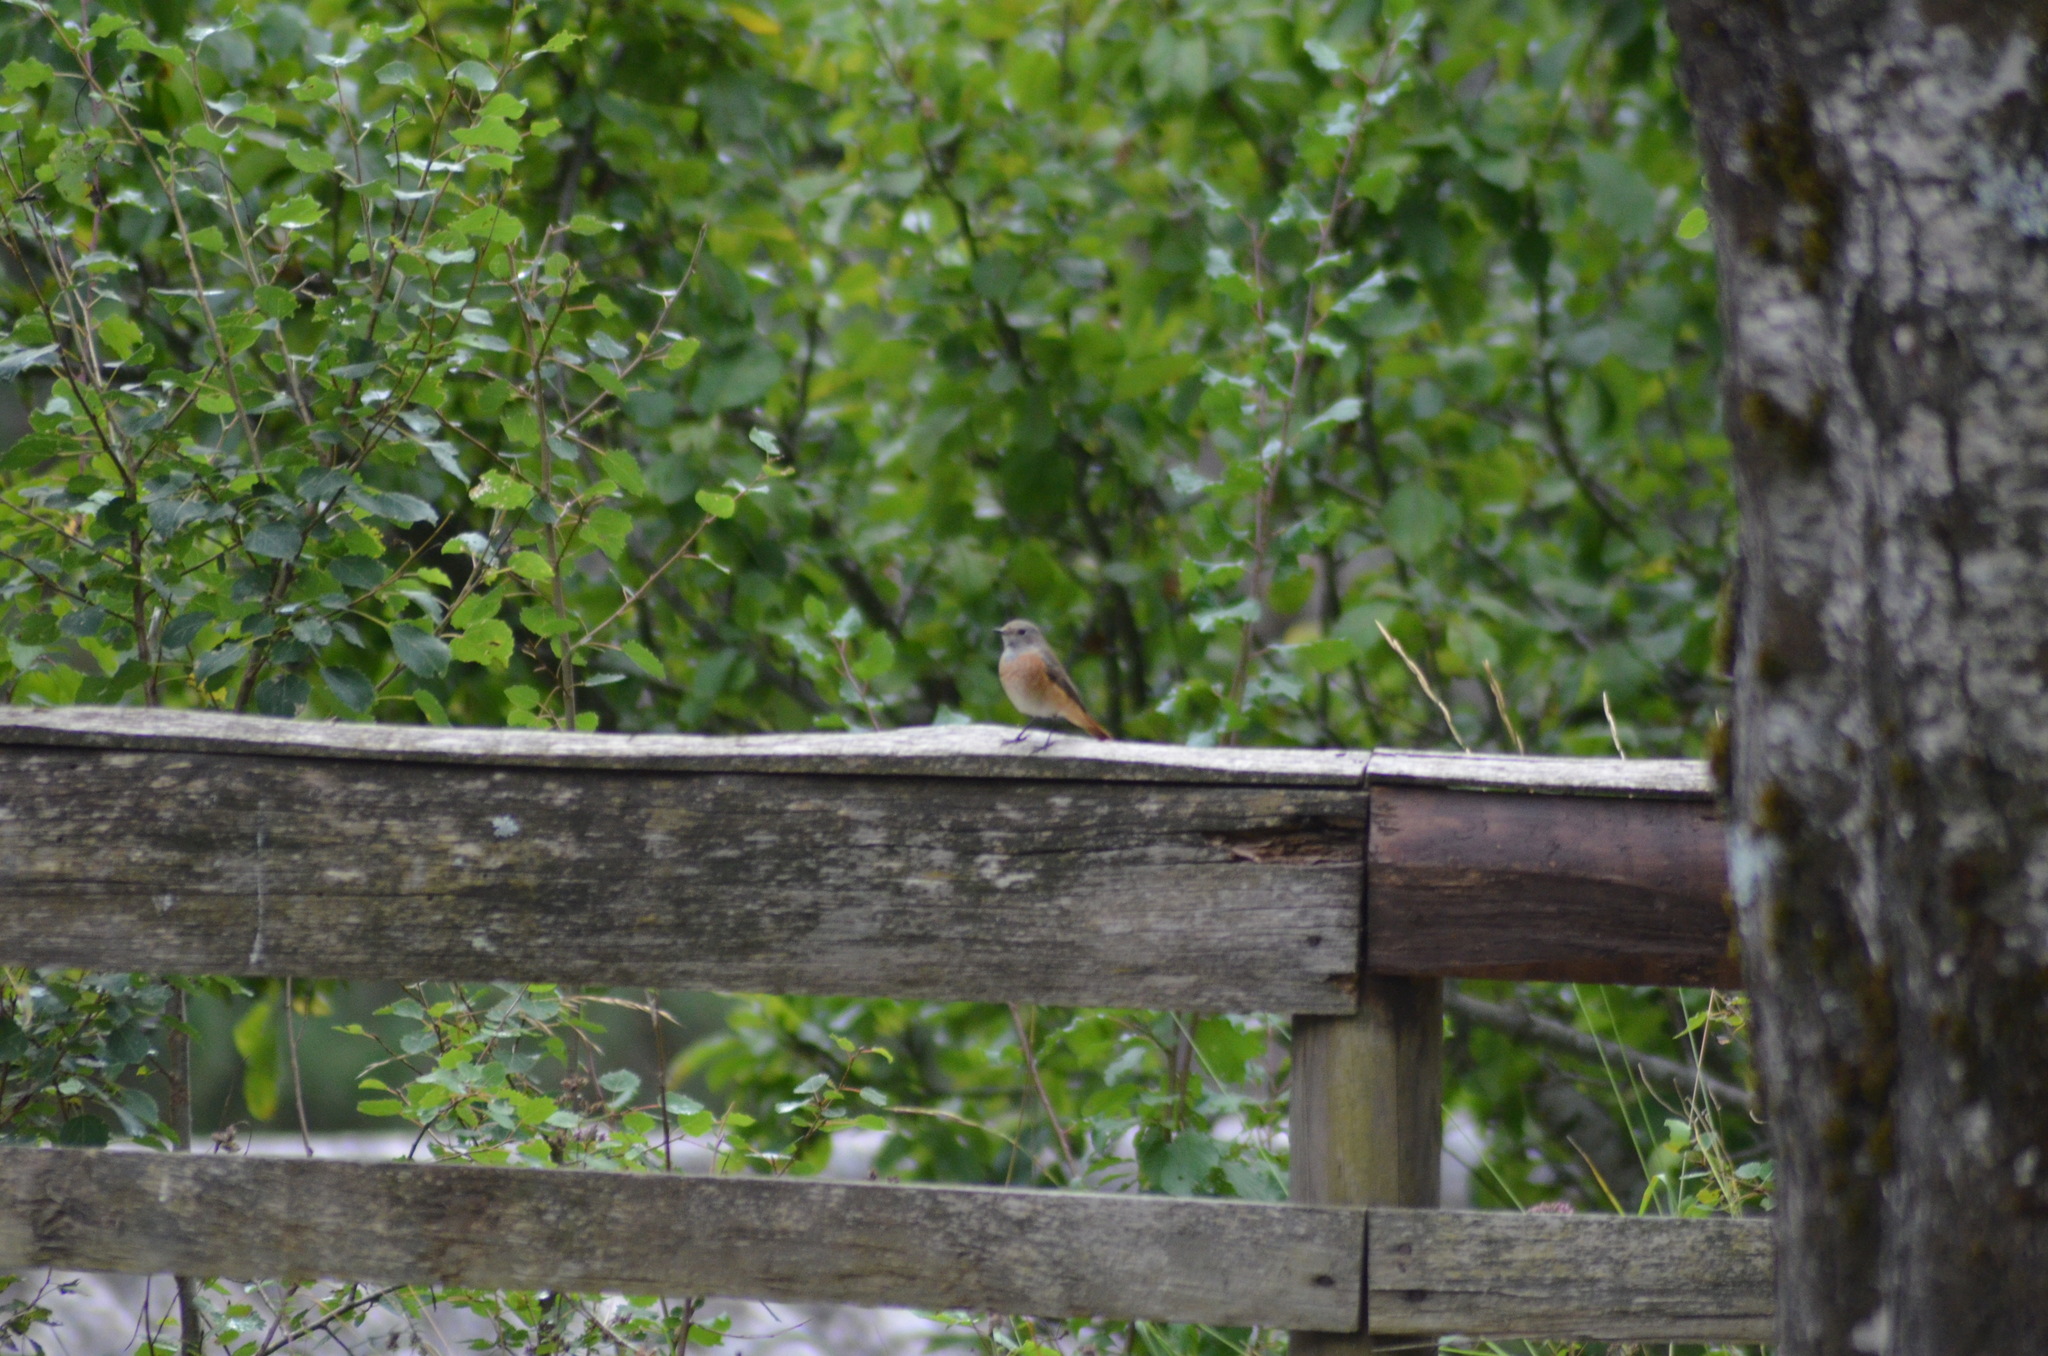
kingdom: Animalia
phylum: Chordata
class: Aves
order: Passeriformes
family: Muscicapidae
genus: Phoenicurus
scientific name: Phoenicurus phoenicurus
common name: Common redstart
